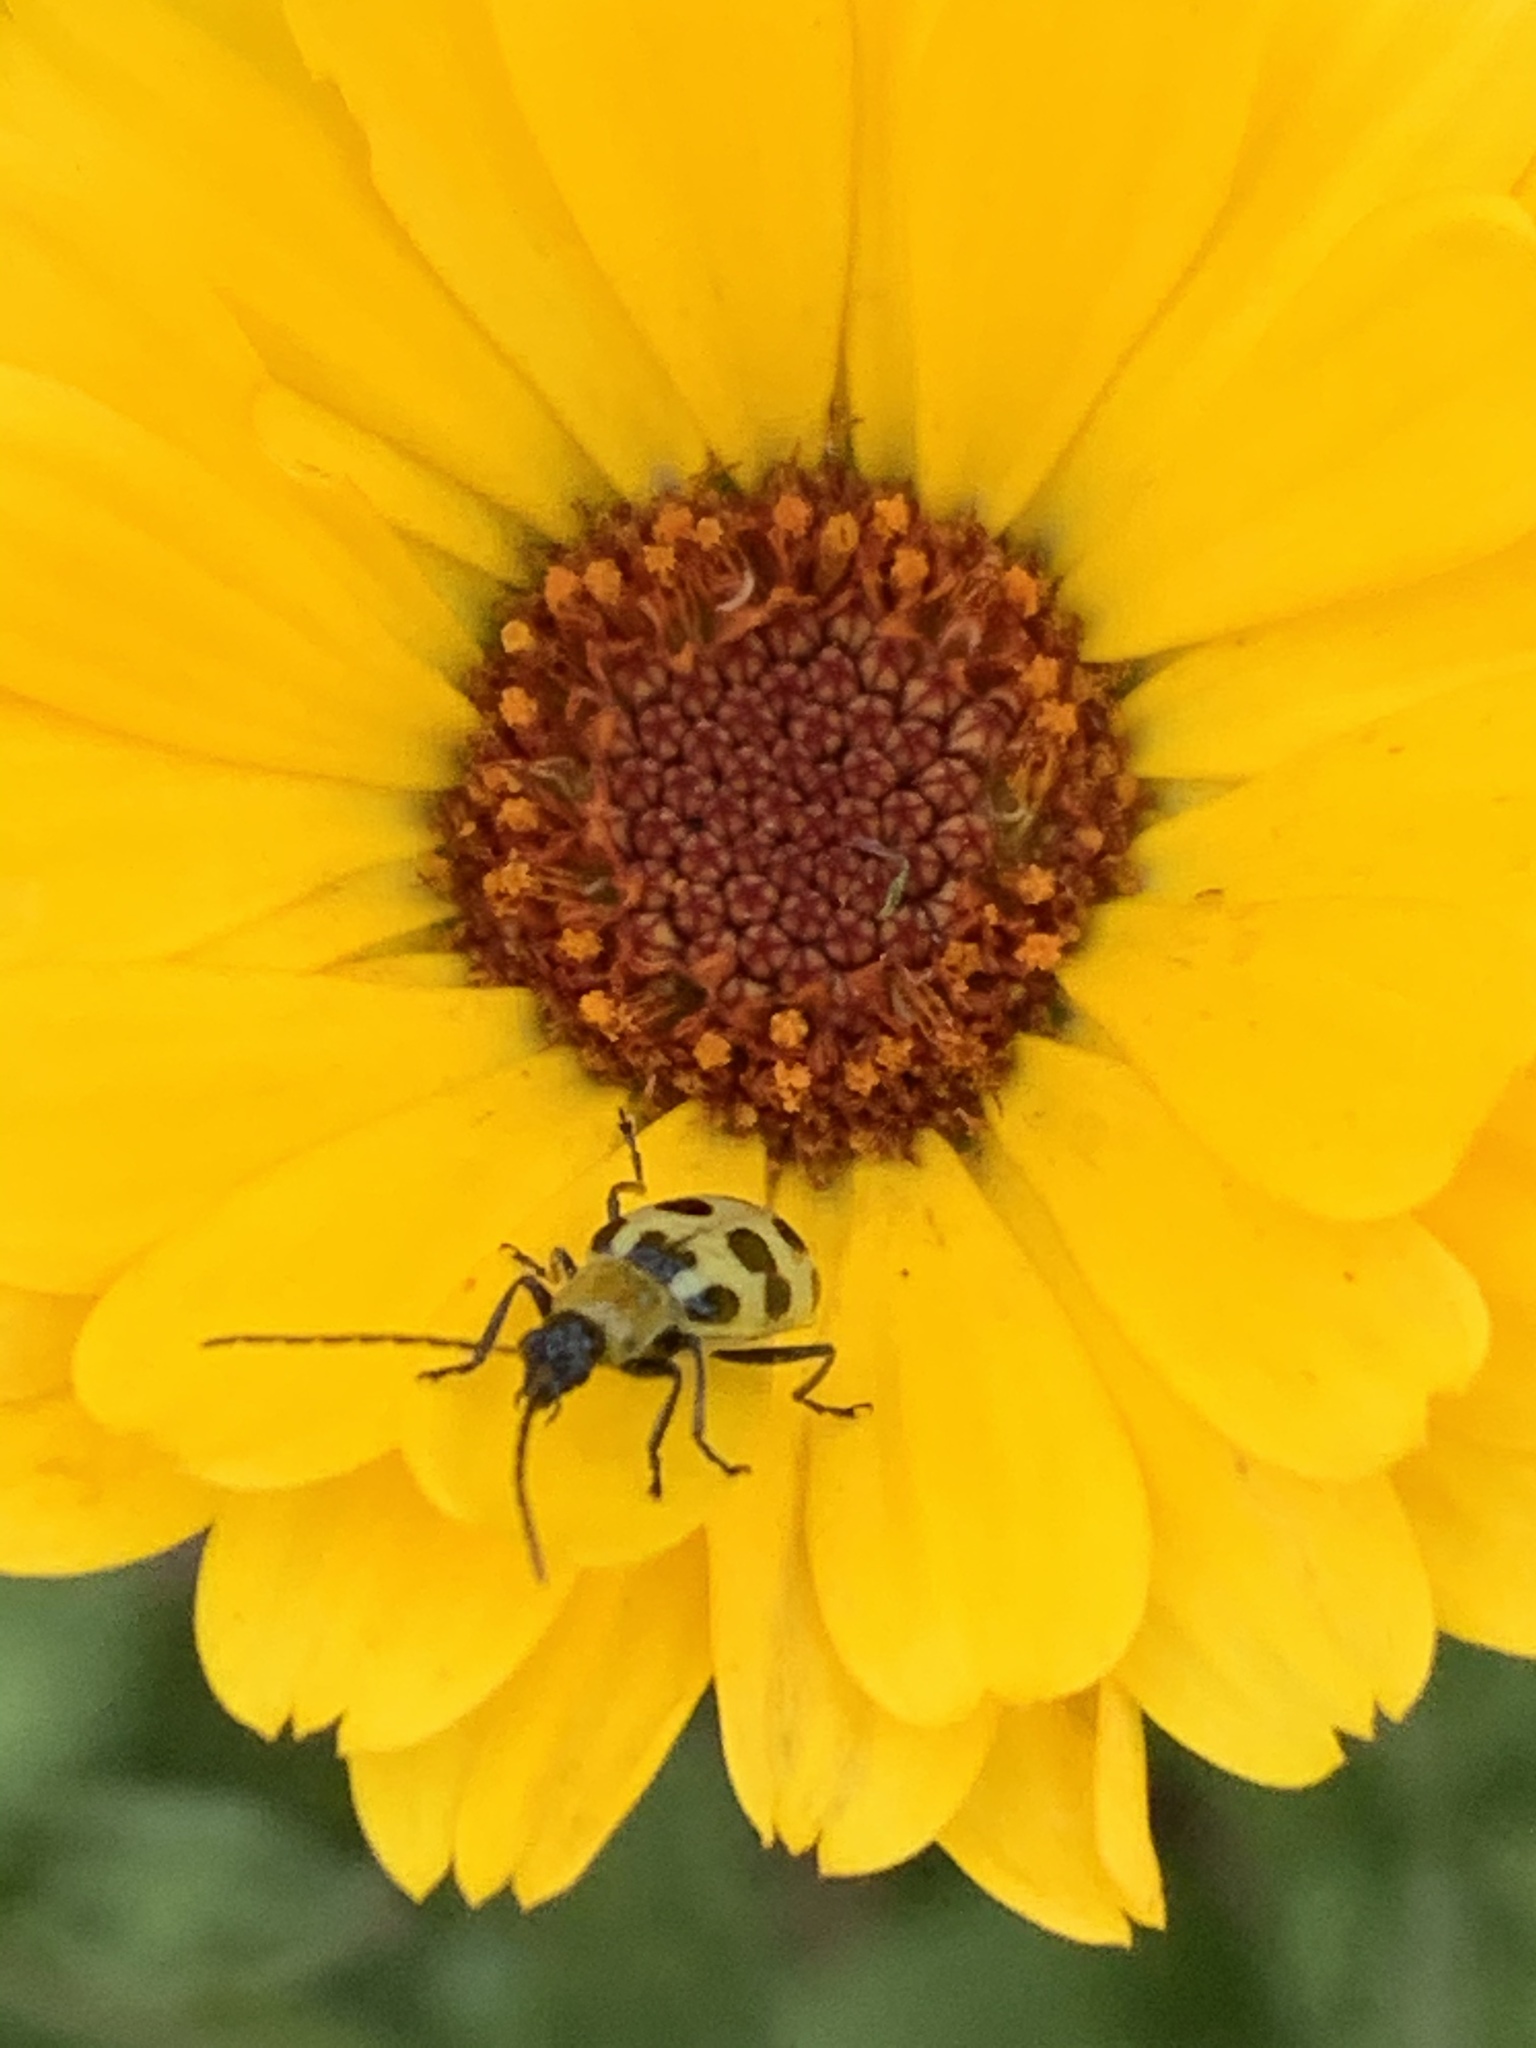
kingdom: Animalia
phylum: Arthropoda
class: Insecta
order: Coleoptera
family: Chrysomelidae
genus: Diabrotica
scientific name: Diabrotica undecimpunctata
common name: Spotted cucumber beetle
